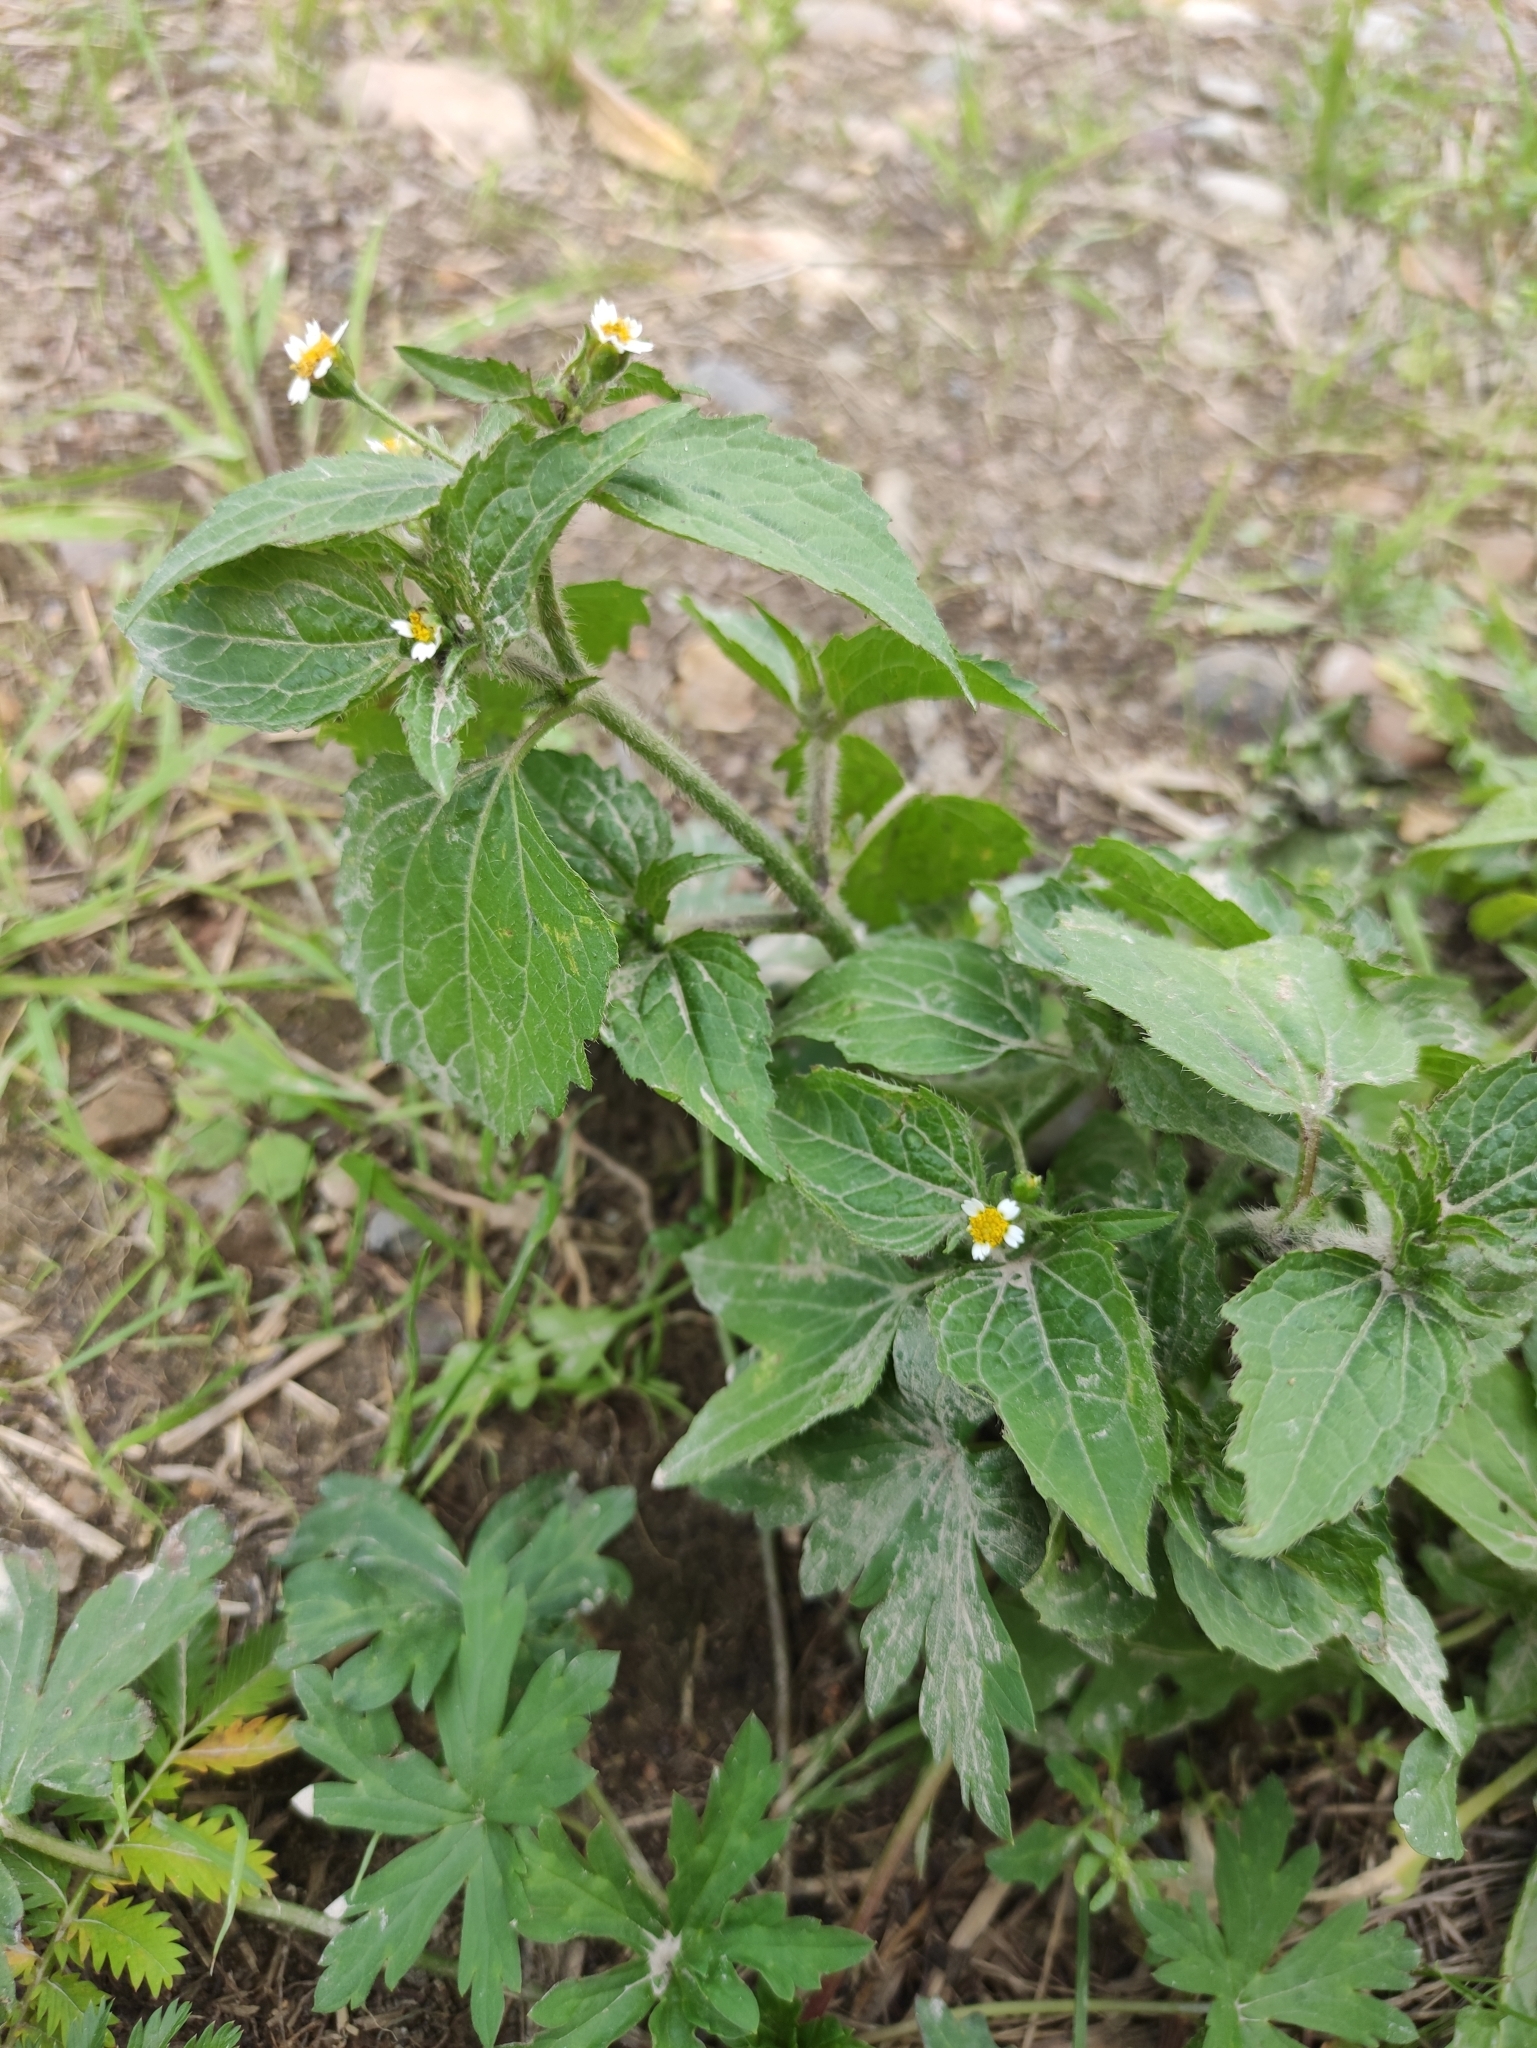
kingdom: Plantae
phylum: Tracheophyta
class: Magnoliopsida
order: Asterales
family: Asteraceae
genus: Galinsoga
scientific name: Galinsoga quadriradiata
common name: Shaggy soldier
